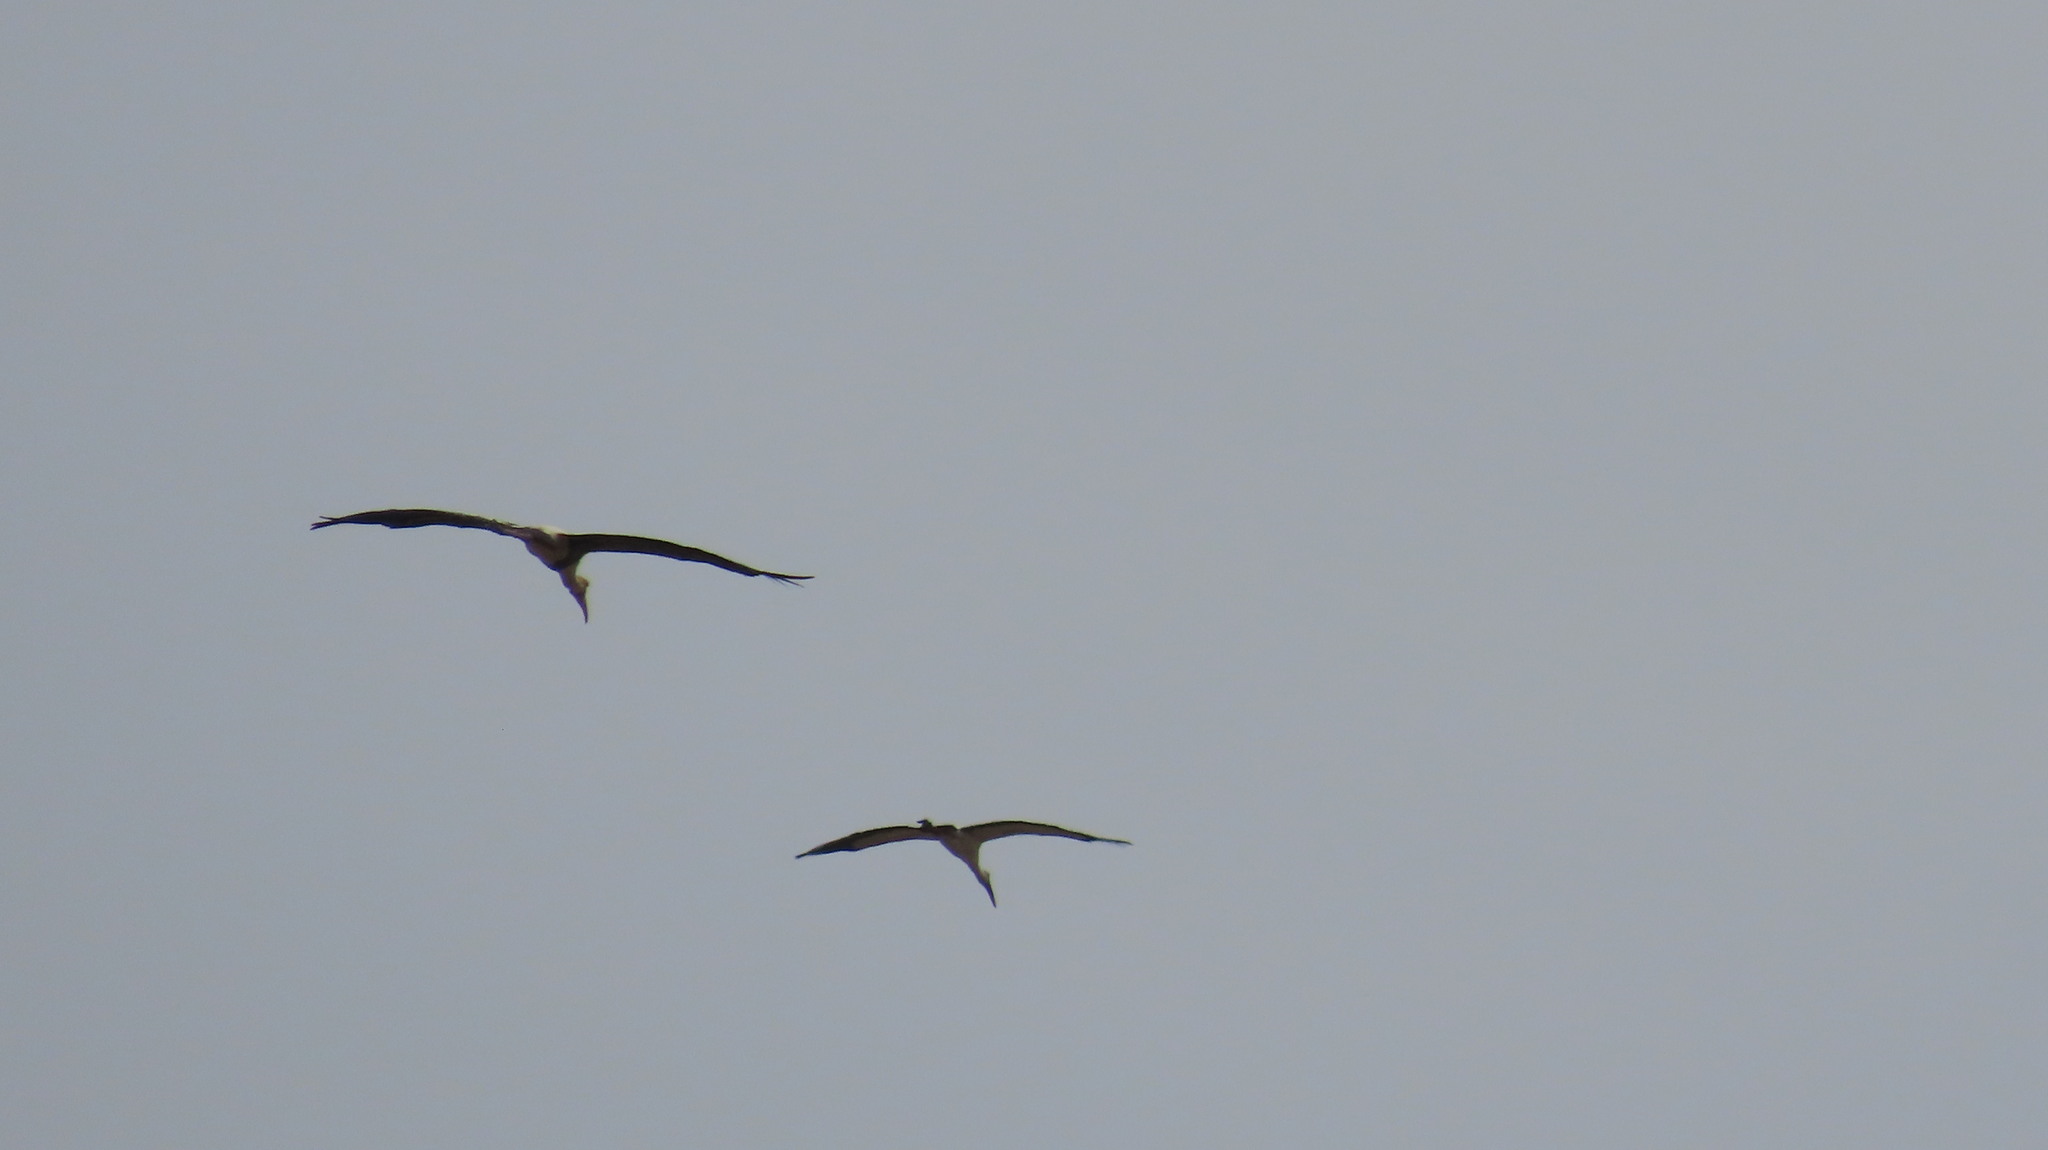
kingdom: Animalia
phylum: Chordata
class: Aves
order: Ciconiiformes
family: Ciconiidae
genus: Mycteria
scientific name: Mycteria leucocephala
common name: Painted stork
